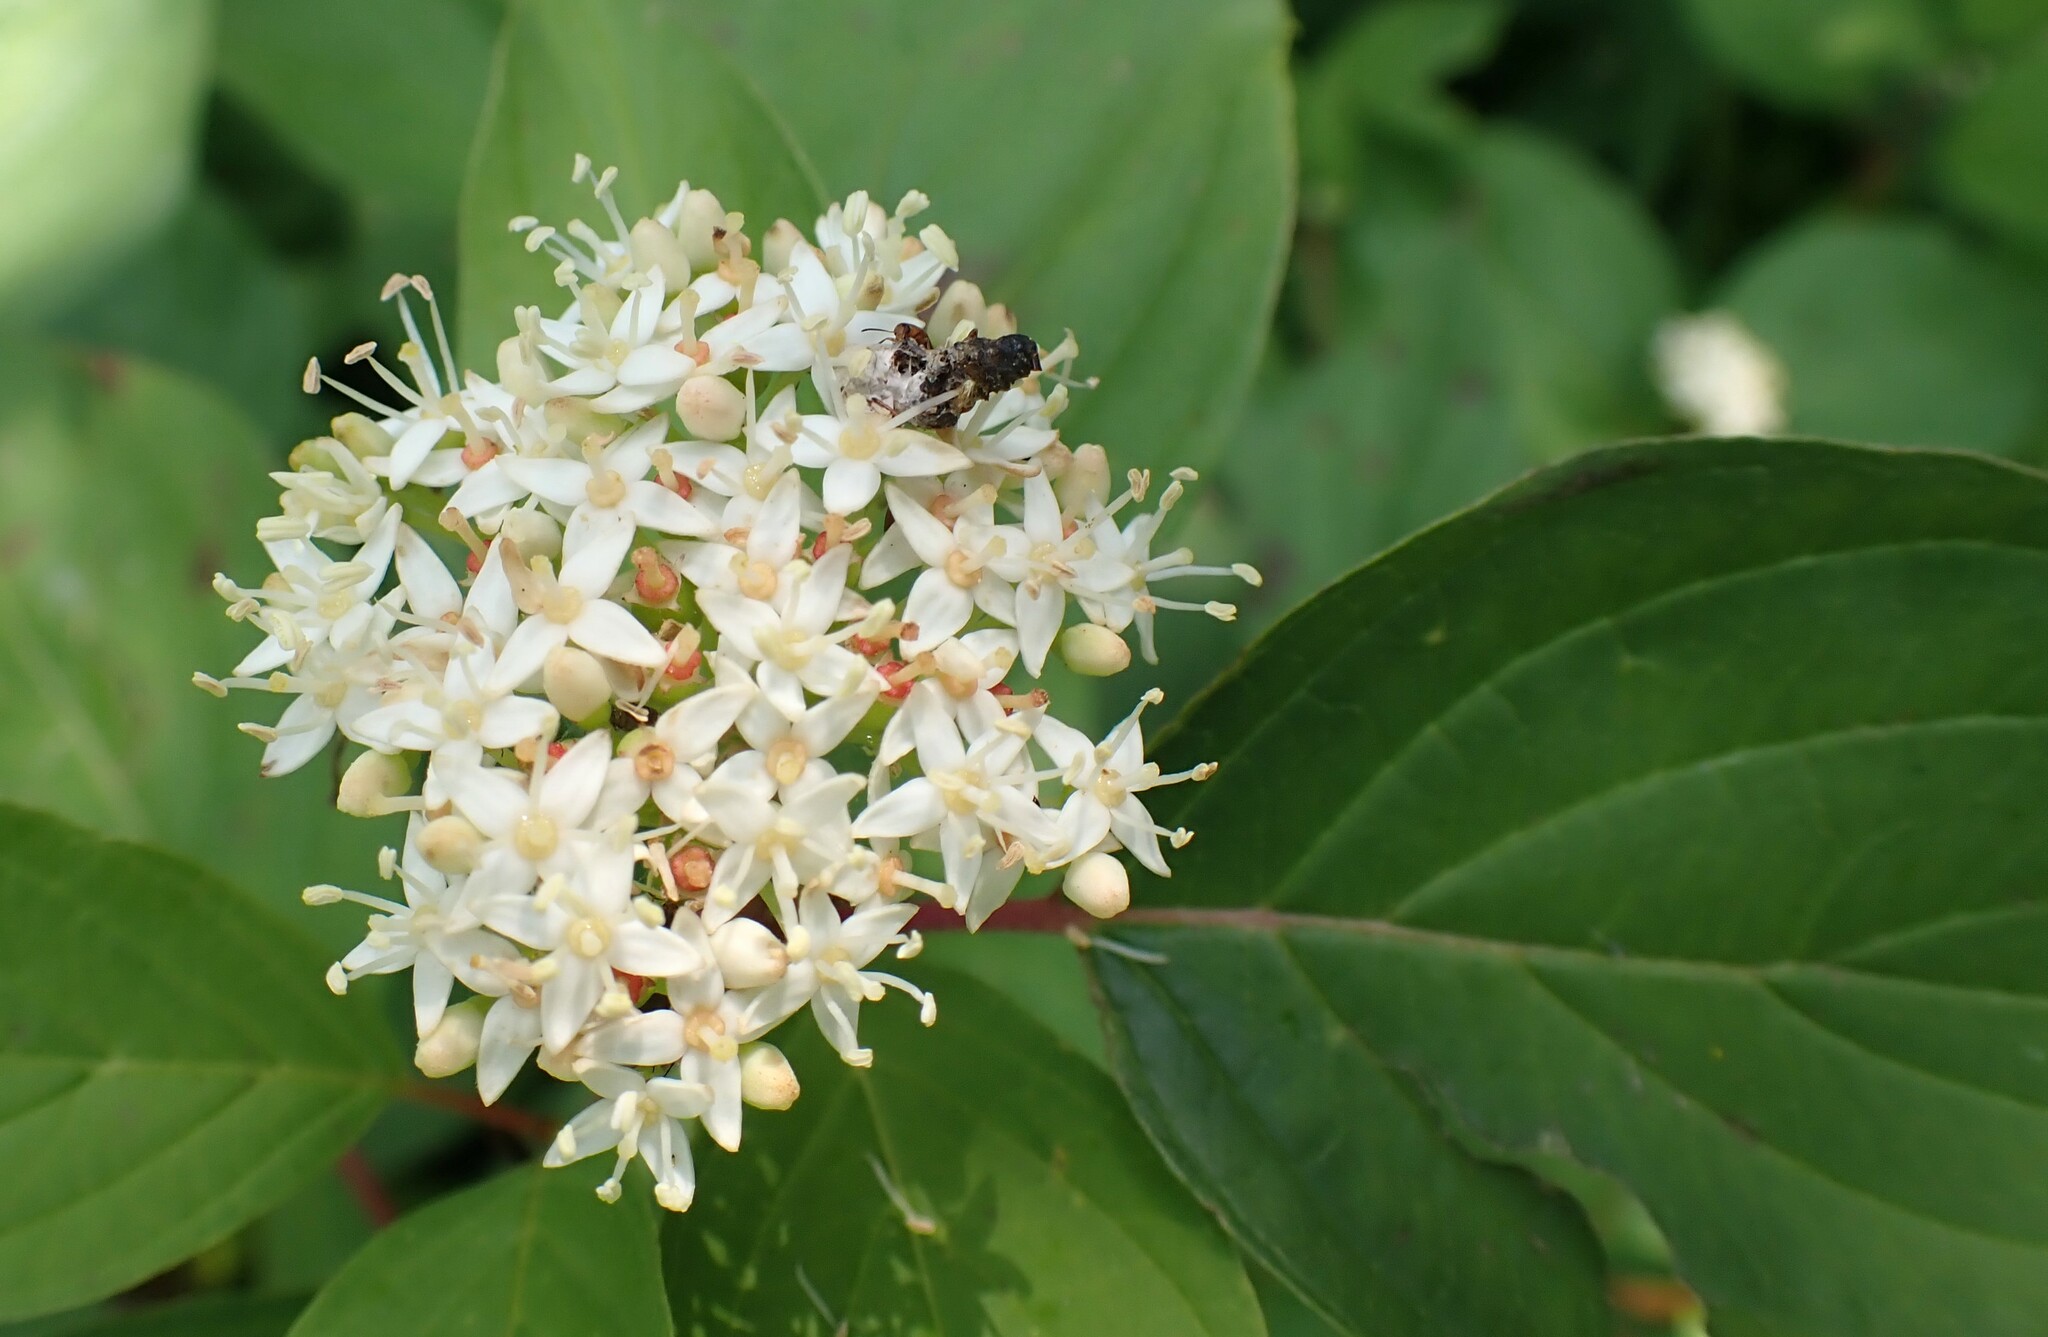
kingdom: Plantae
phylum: Tracheophyta
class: Magnoliopsida
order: Cornales
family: Cornaceae
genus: Cornus
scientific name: Cornus sericea
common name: Red-osier dogwood
